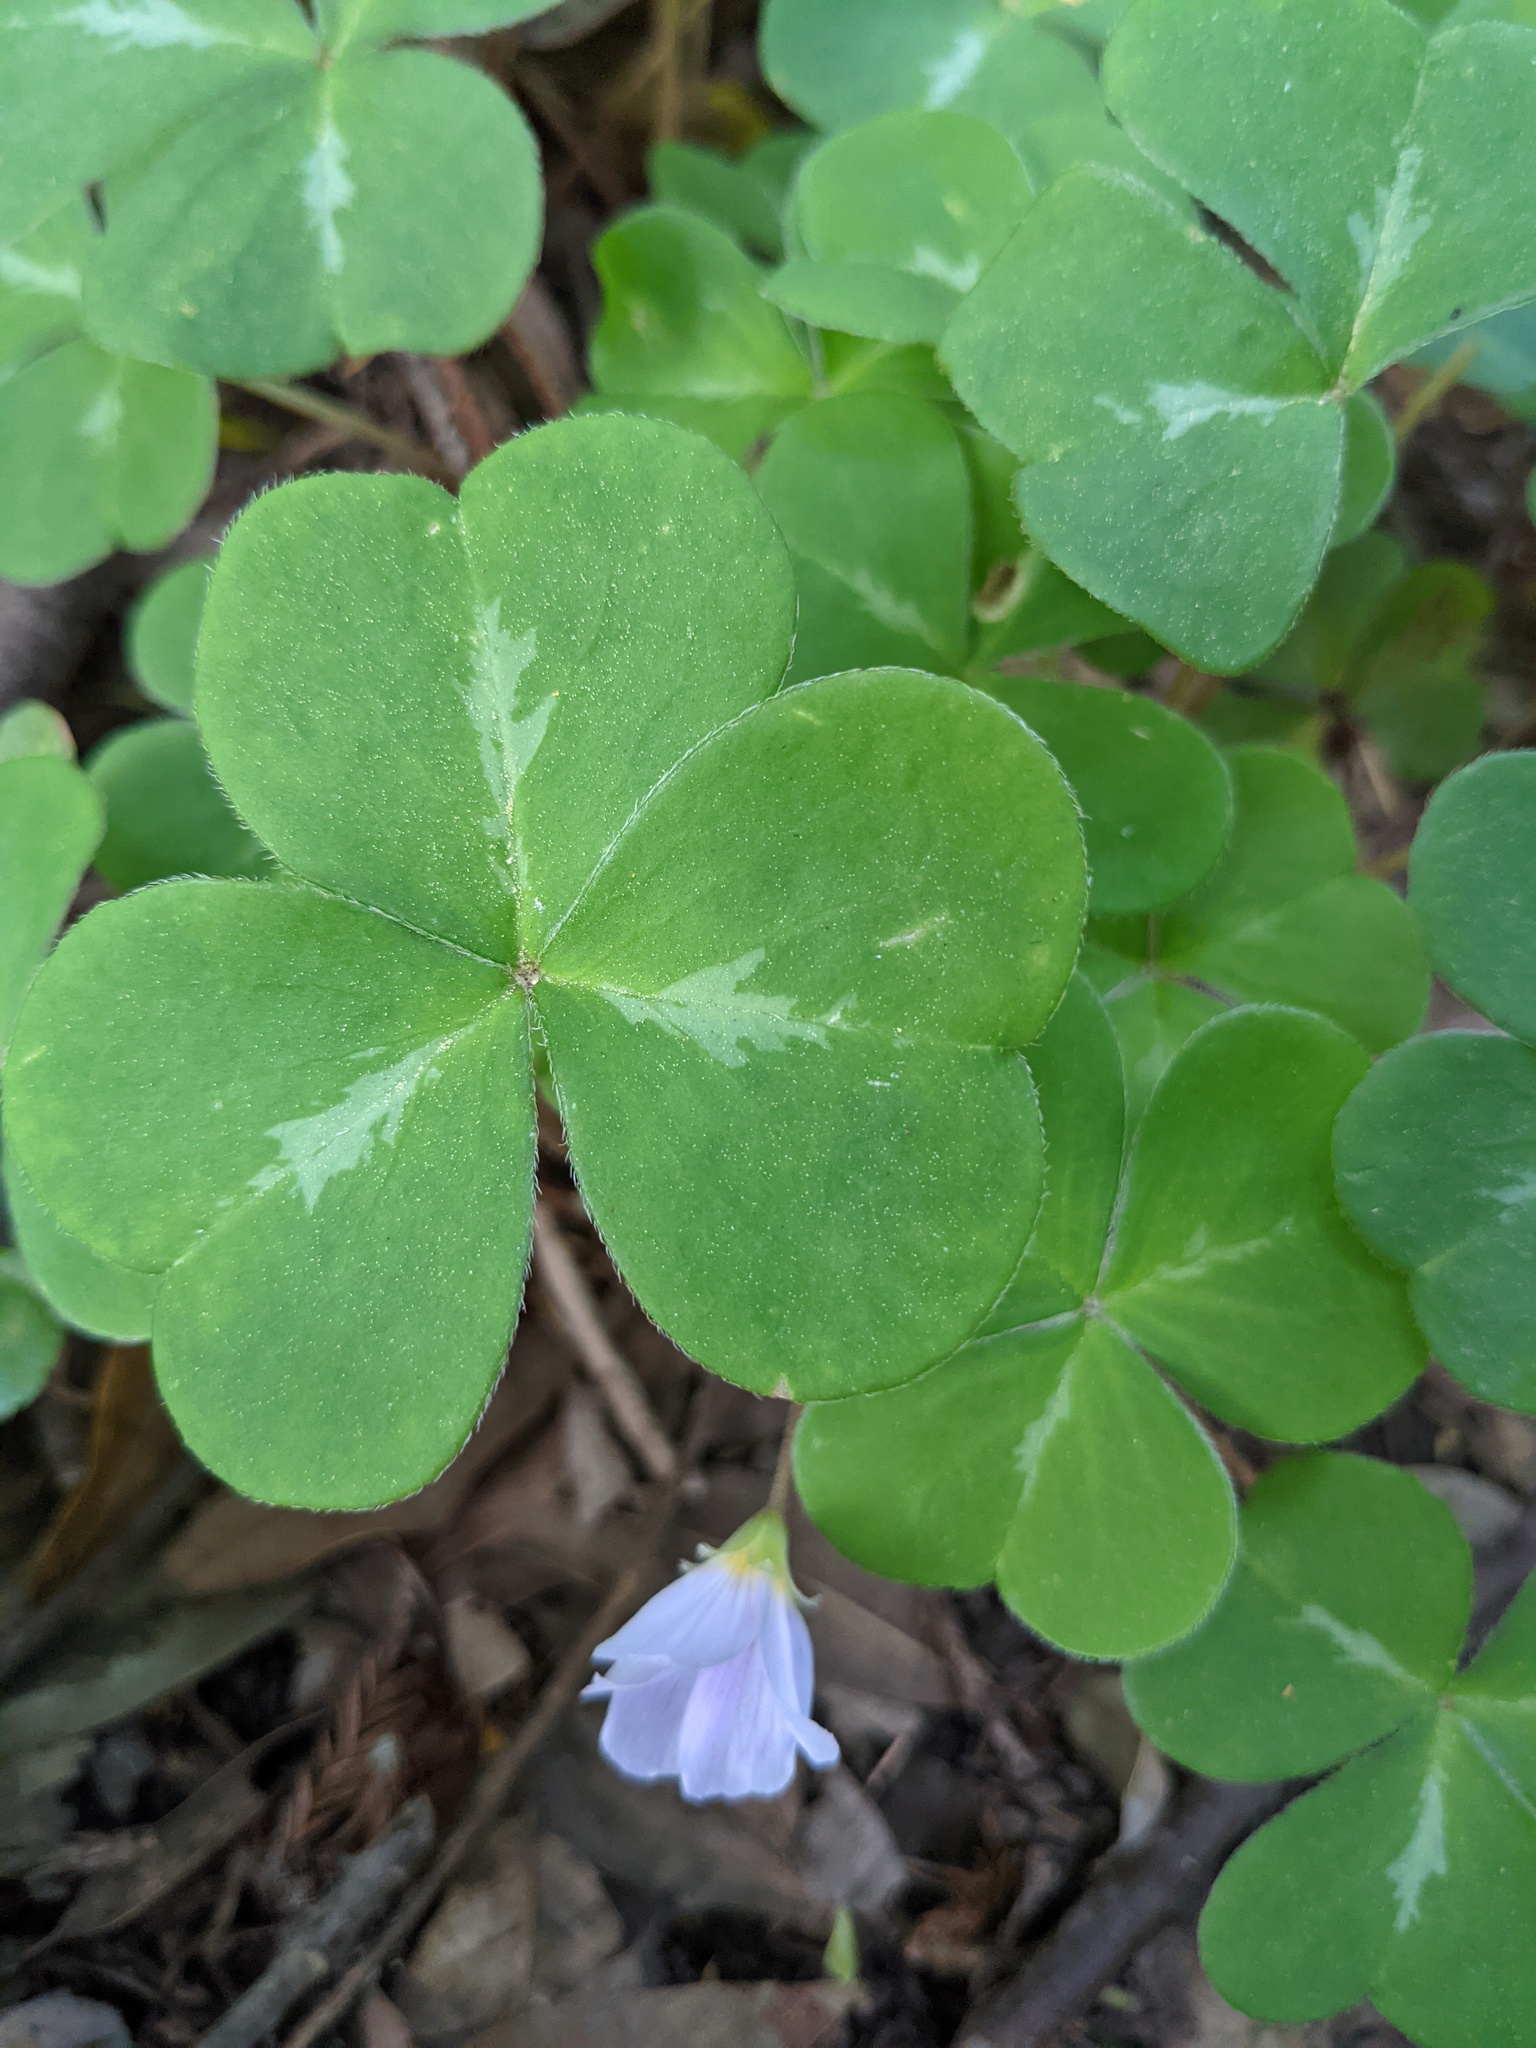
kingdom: Plantae
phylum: Tracheophyta
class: Magnoliopsida
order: Oxalidales
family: Oxalidaceae
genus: Oxalis
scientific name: Oxalis oregana
